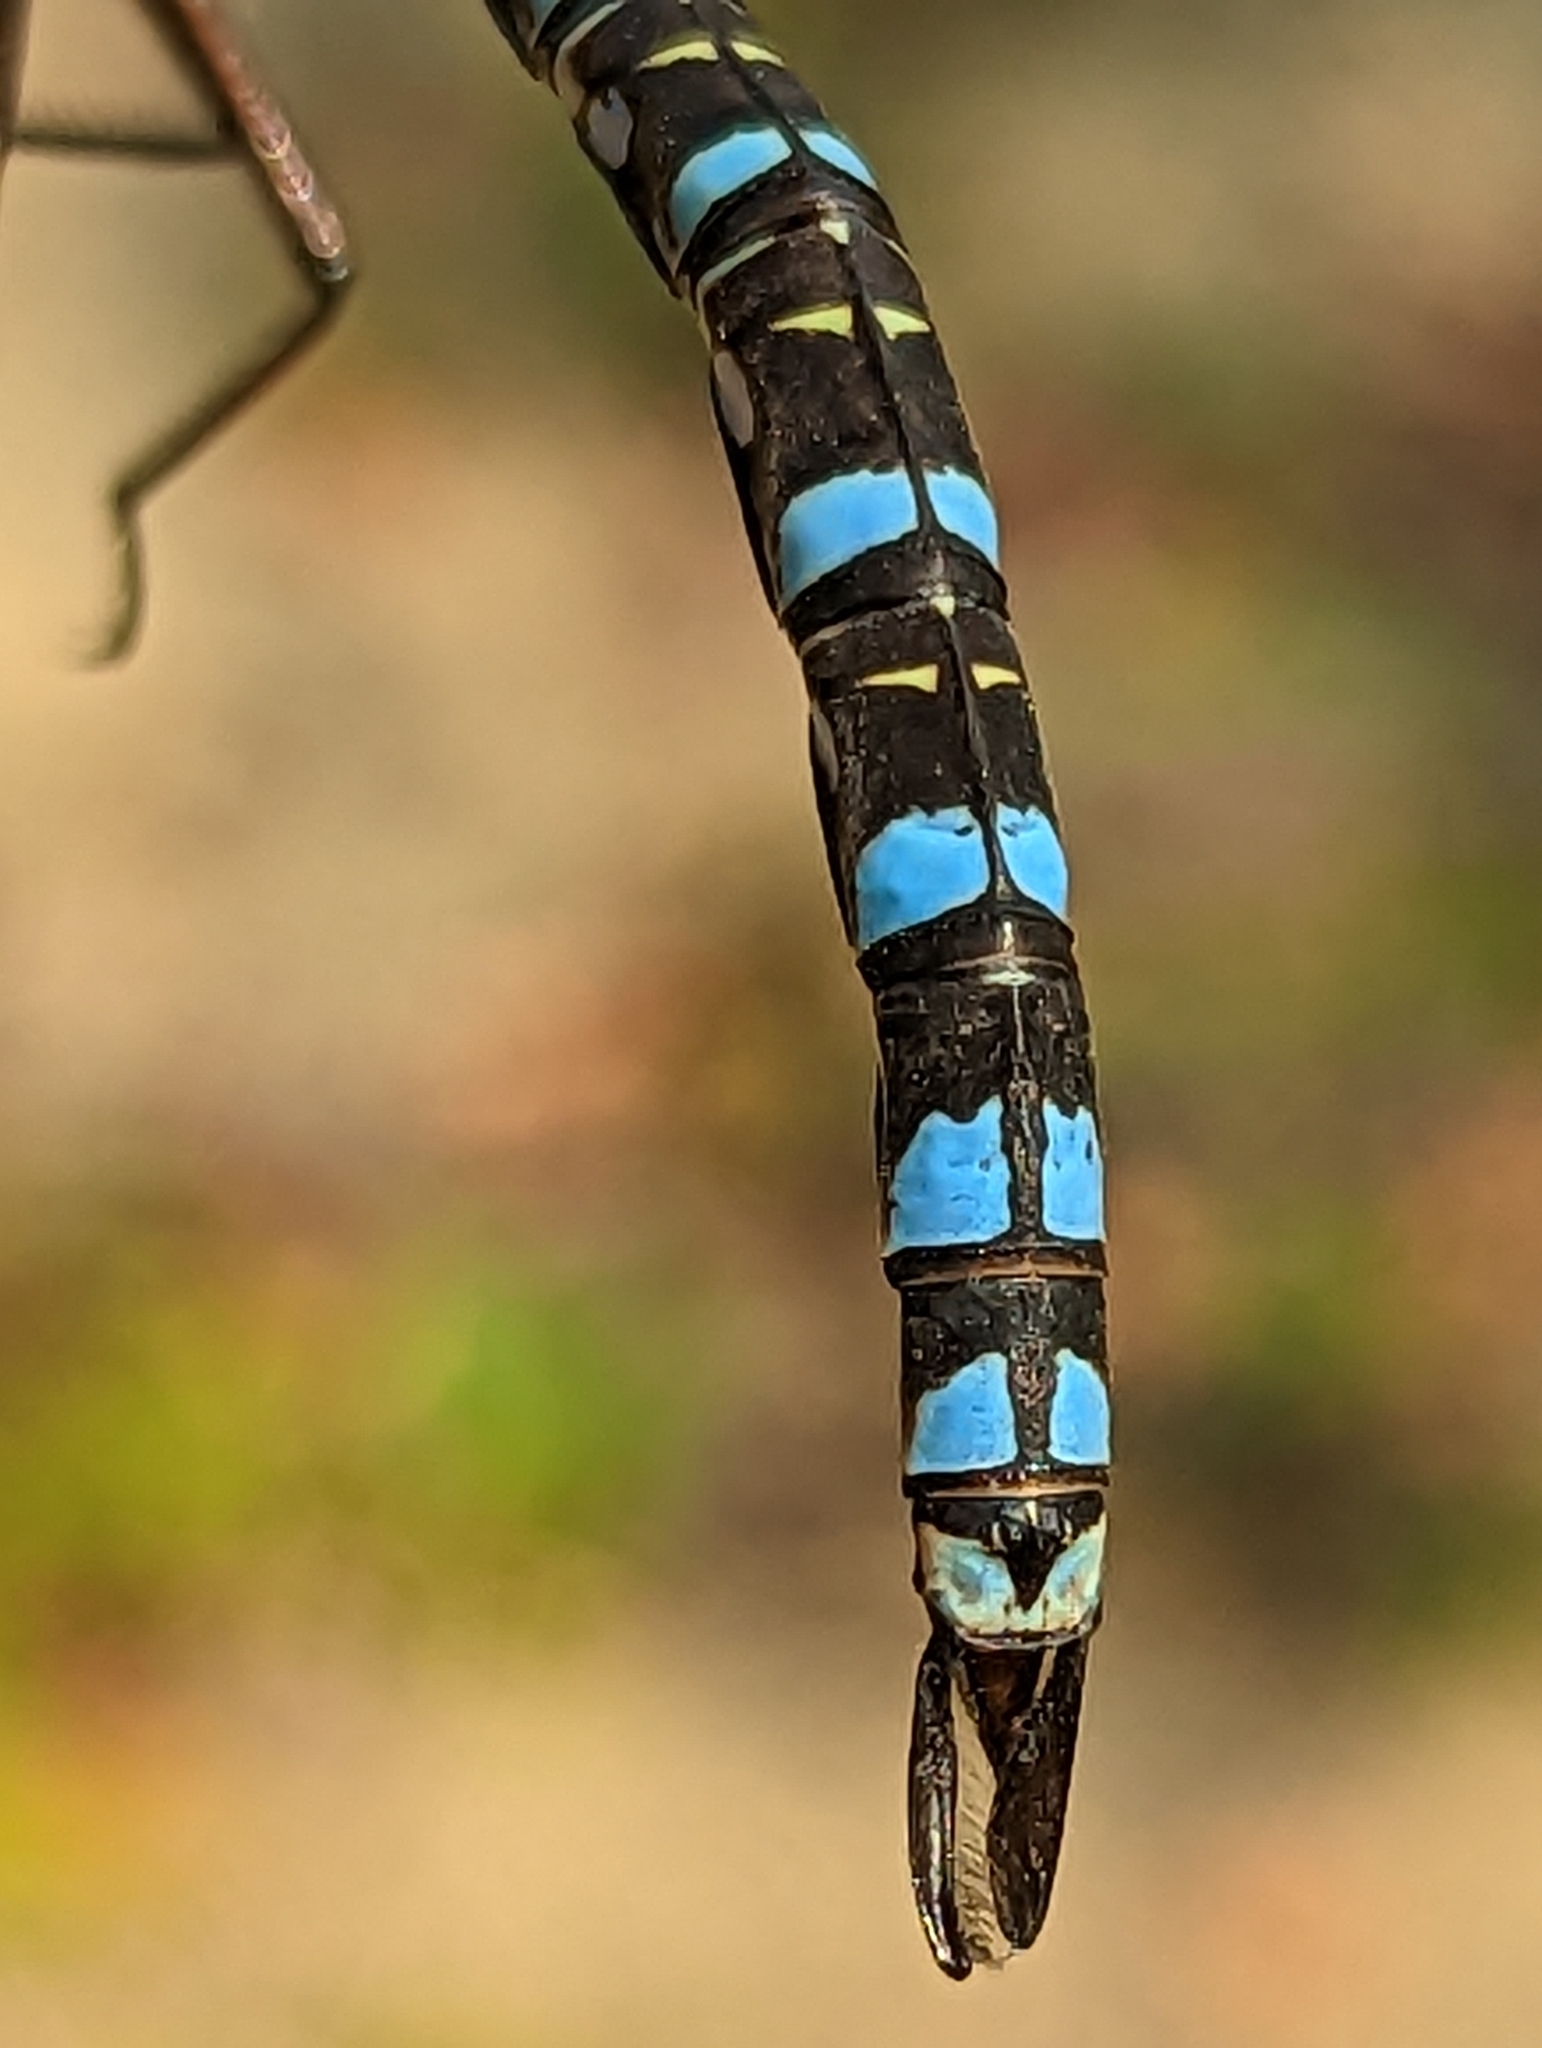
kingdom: Animalia
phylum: Arthropoda
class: Insecta
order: Odonata
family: Aeshnidae
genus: Aeshna
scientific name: Aeshna eremita
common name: Lake darner
